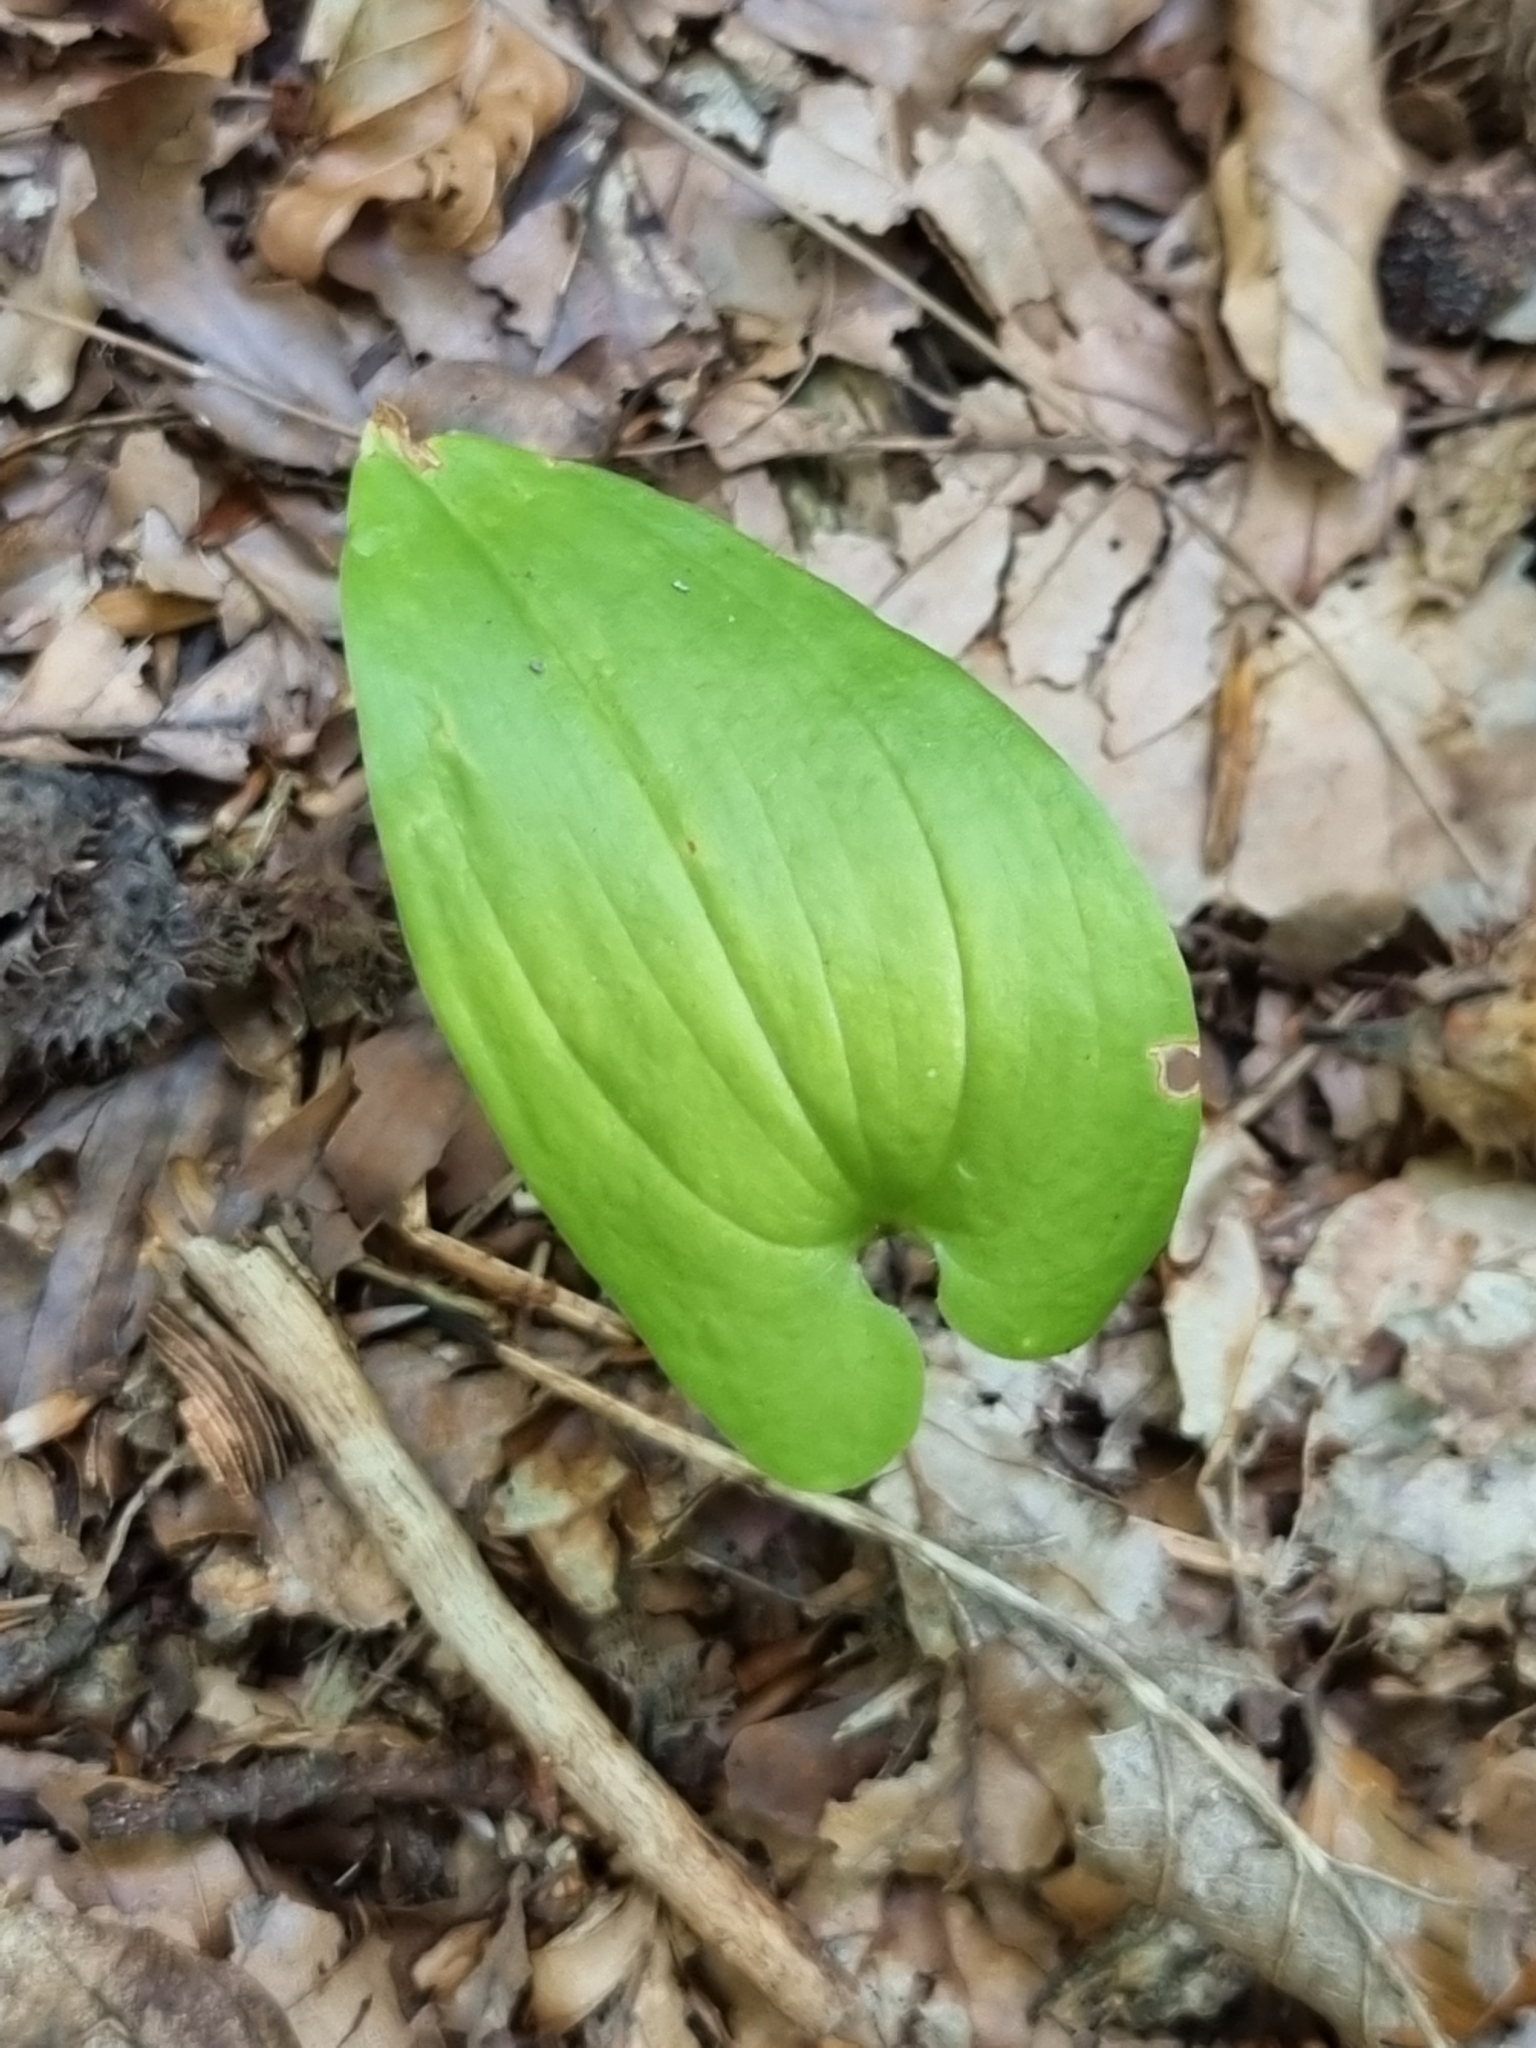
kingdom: Plantae
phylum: Tracheophyta
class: Liliopsida
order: Asparagales
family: Asparagaceae
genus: Maianthemum
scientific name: Maianthemum bifolium
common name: May lily
